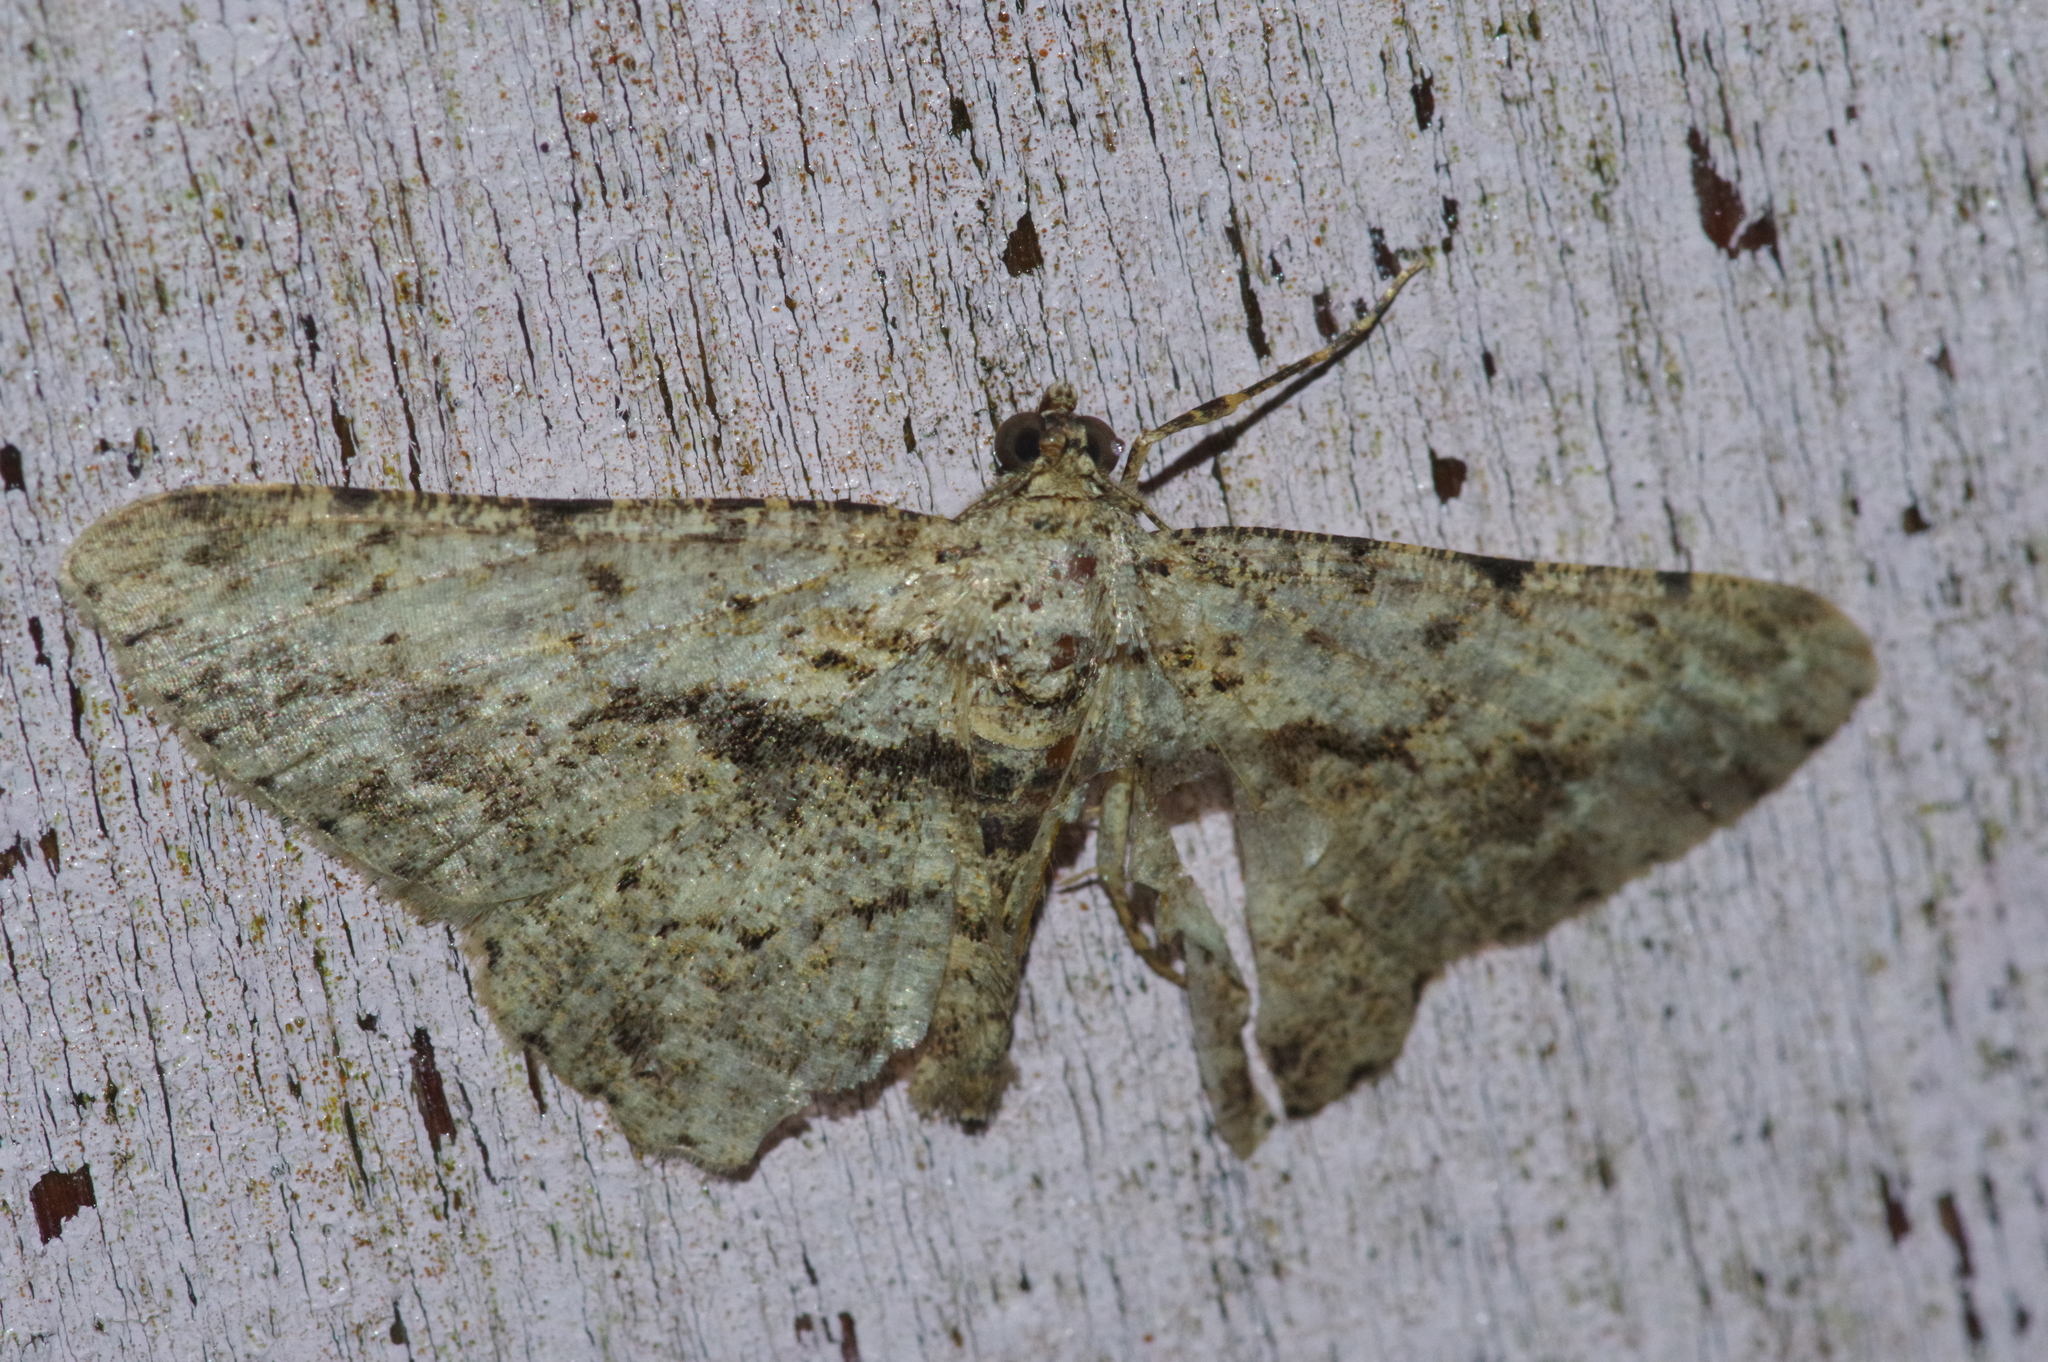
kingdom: Animalia
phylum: Arthropoda
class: Insecta
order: Lepidoptera
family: Geometridae
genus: Psilalcis
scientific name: Psilalcis breta
